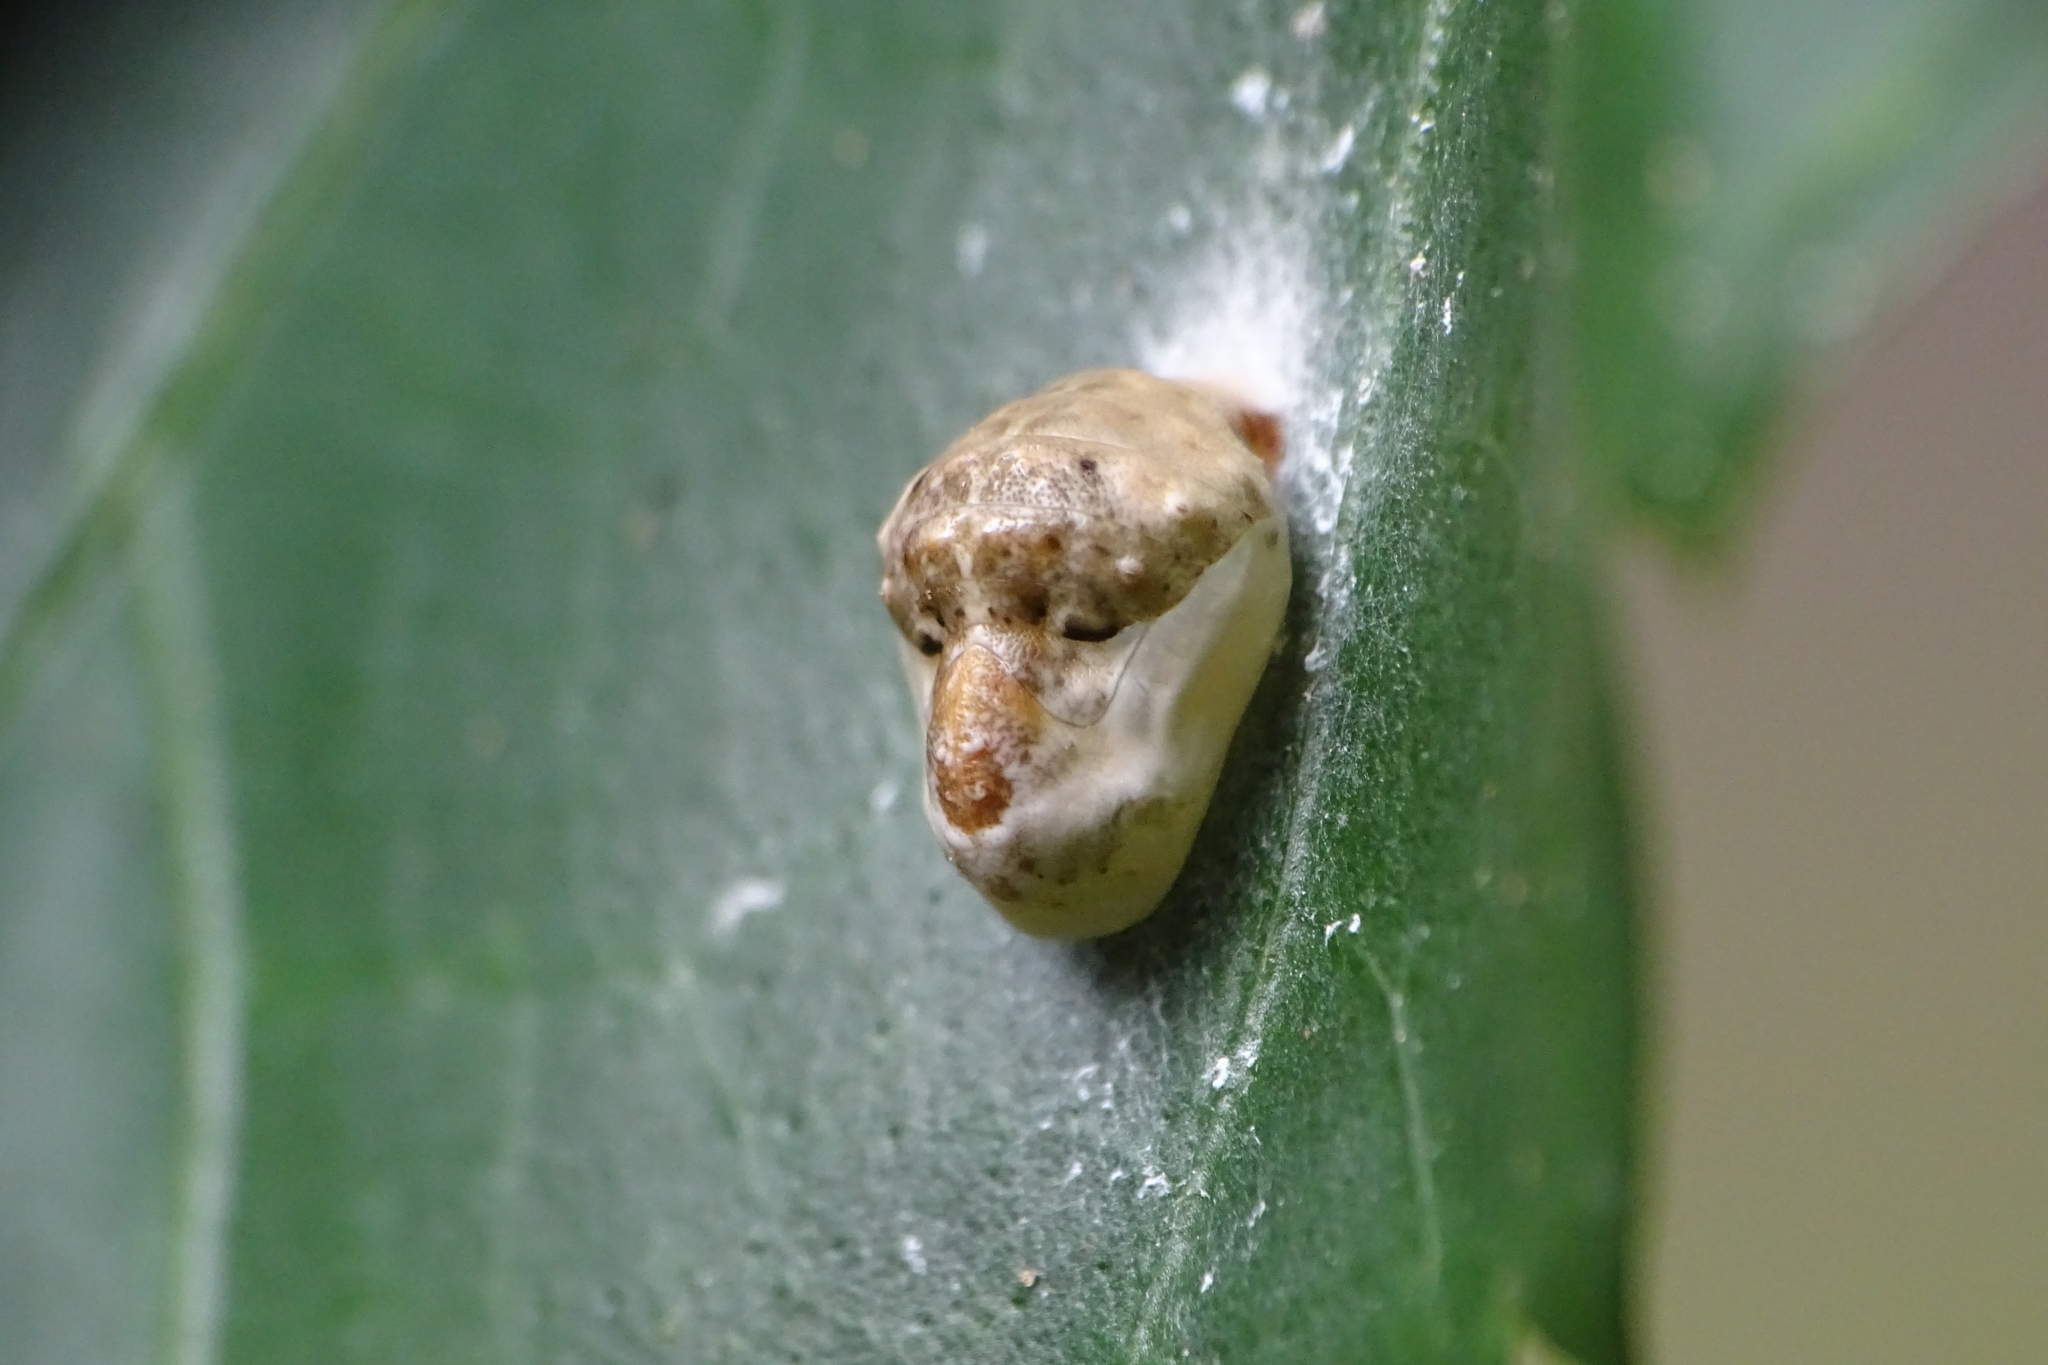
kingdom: Animalia
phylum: Arthropoda
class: Insecta
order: Lepidoptera
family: Lycaenidae
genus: Spalgis
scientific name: Spalgis epius
